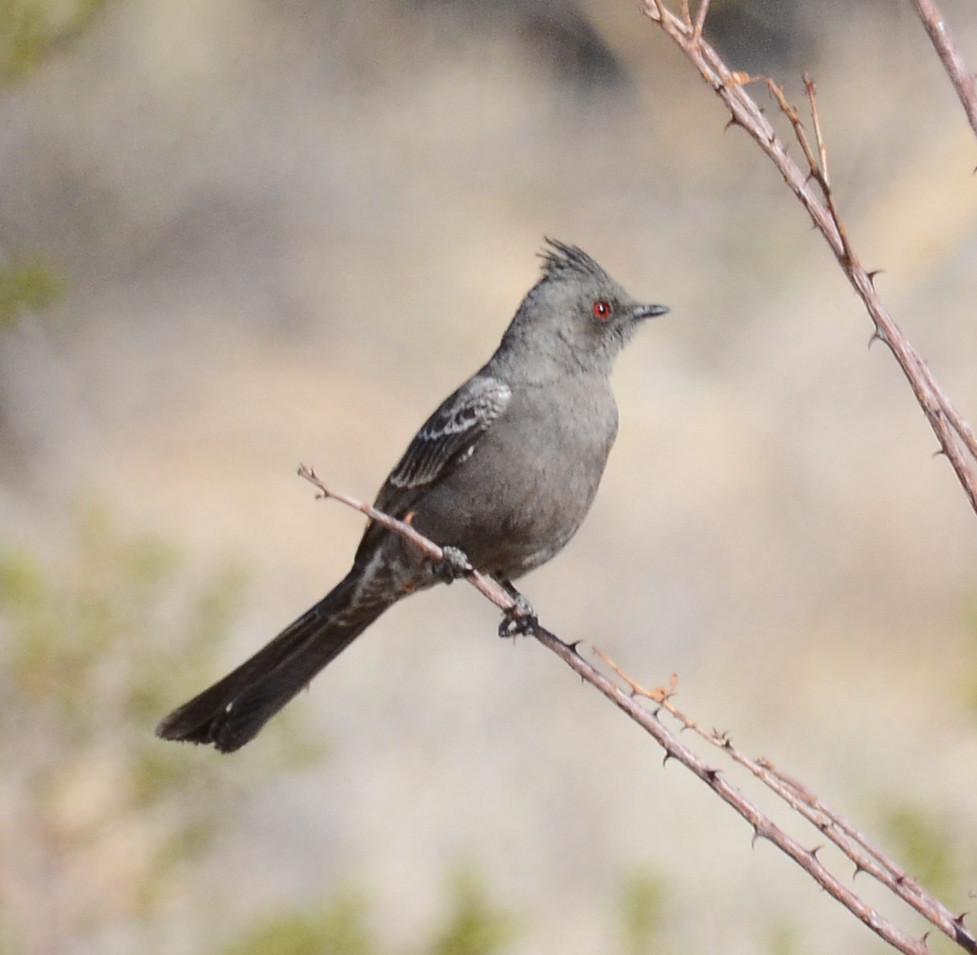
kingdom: Animalia
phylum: Chordata
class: Aves
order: Passeriformes
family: Ptilogonatidae
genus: Phainopepla
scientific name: Phainopepla nitens
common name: Phainopepla
